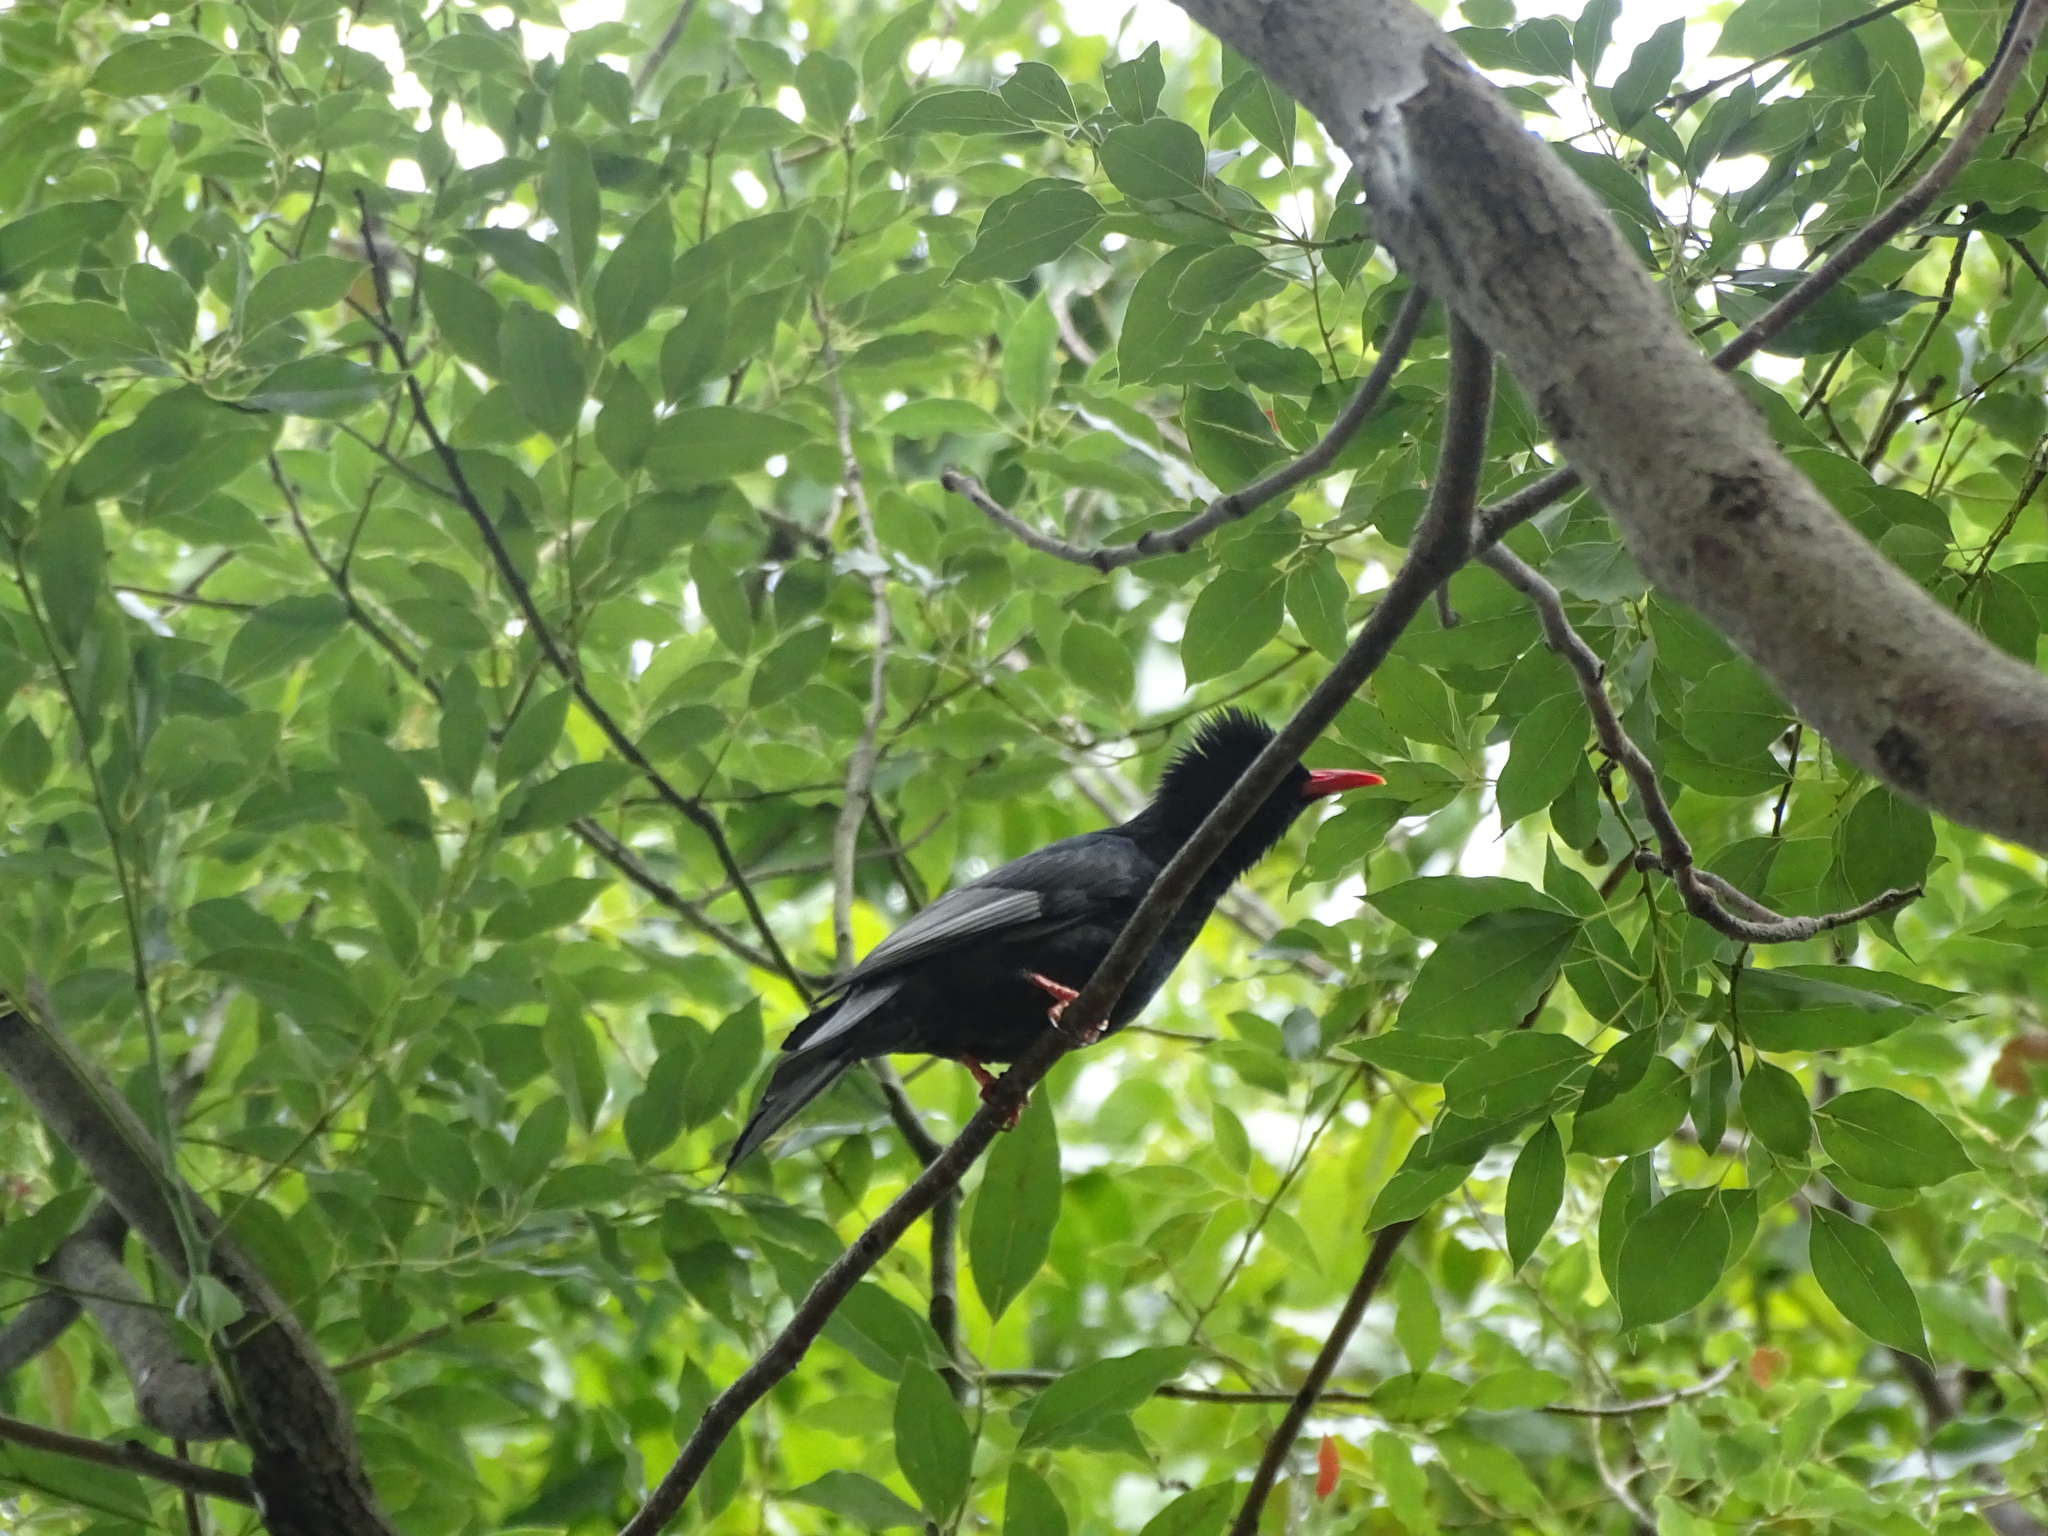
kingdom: Animalia
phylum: Chordata
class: Aves
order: Passeriformes
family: Pycnonotidae
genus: Hypsipetes
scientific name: Hypsipetes leucocephalus
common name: Black bulbul
